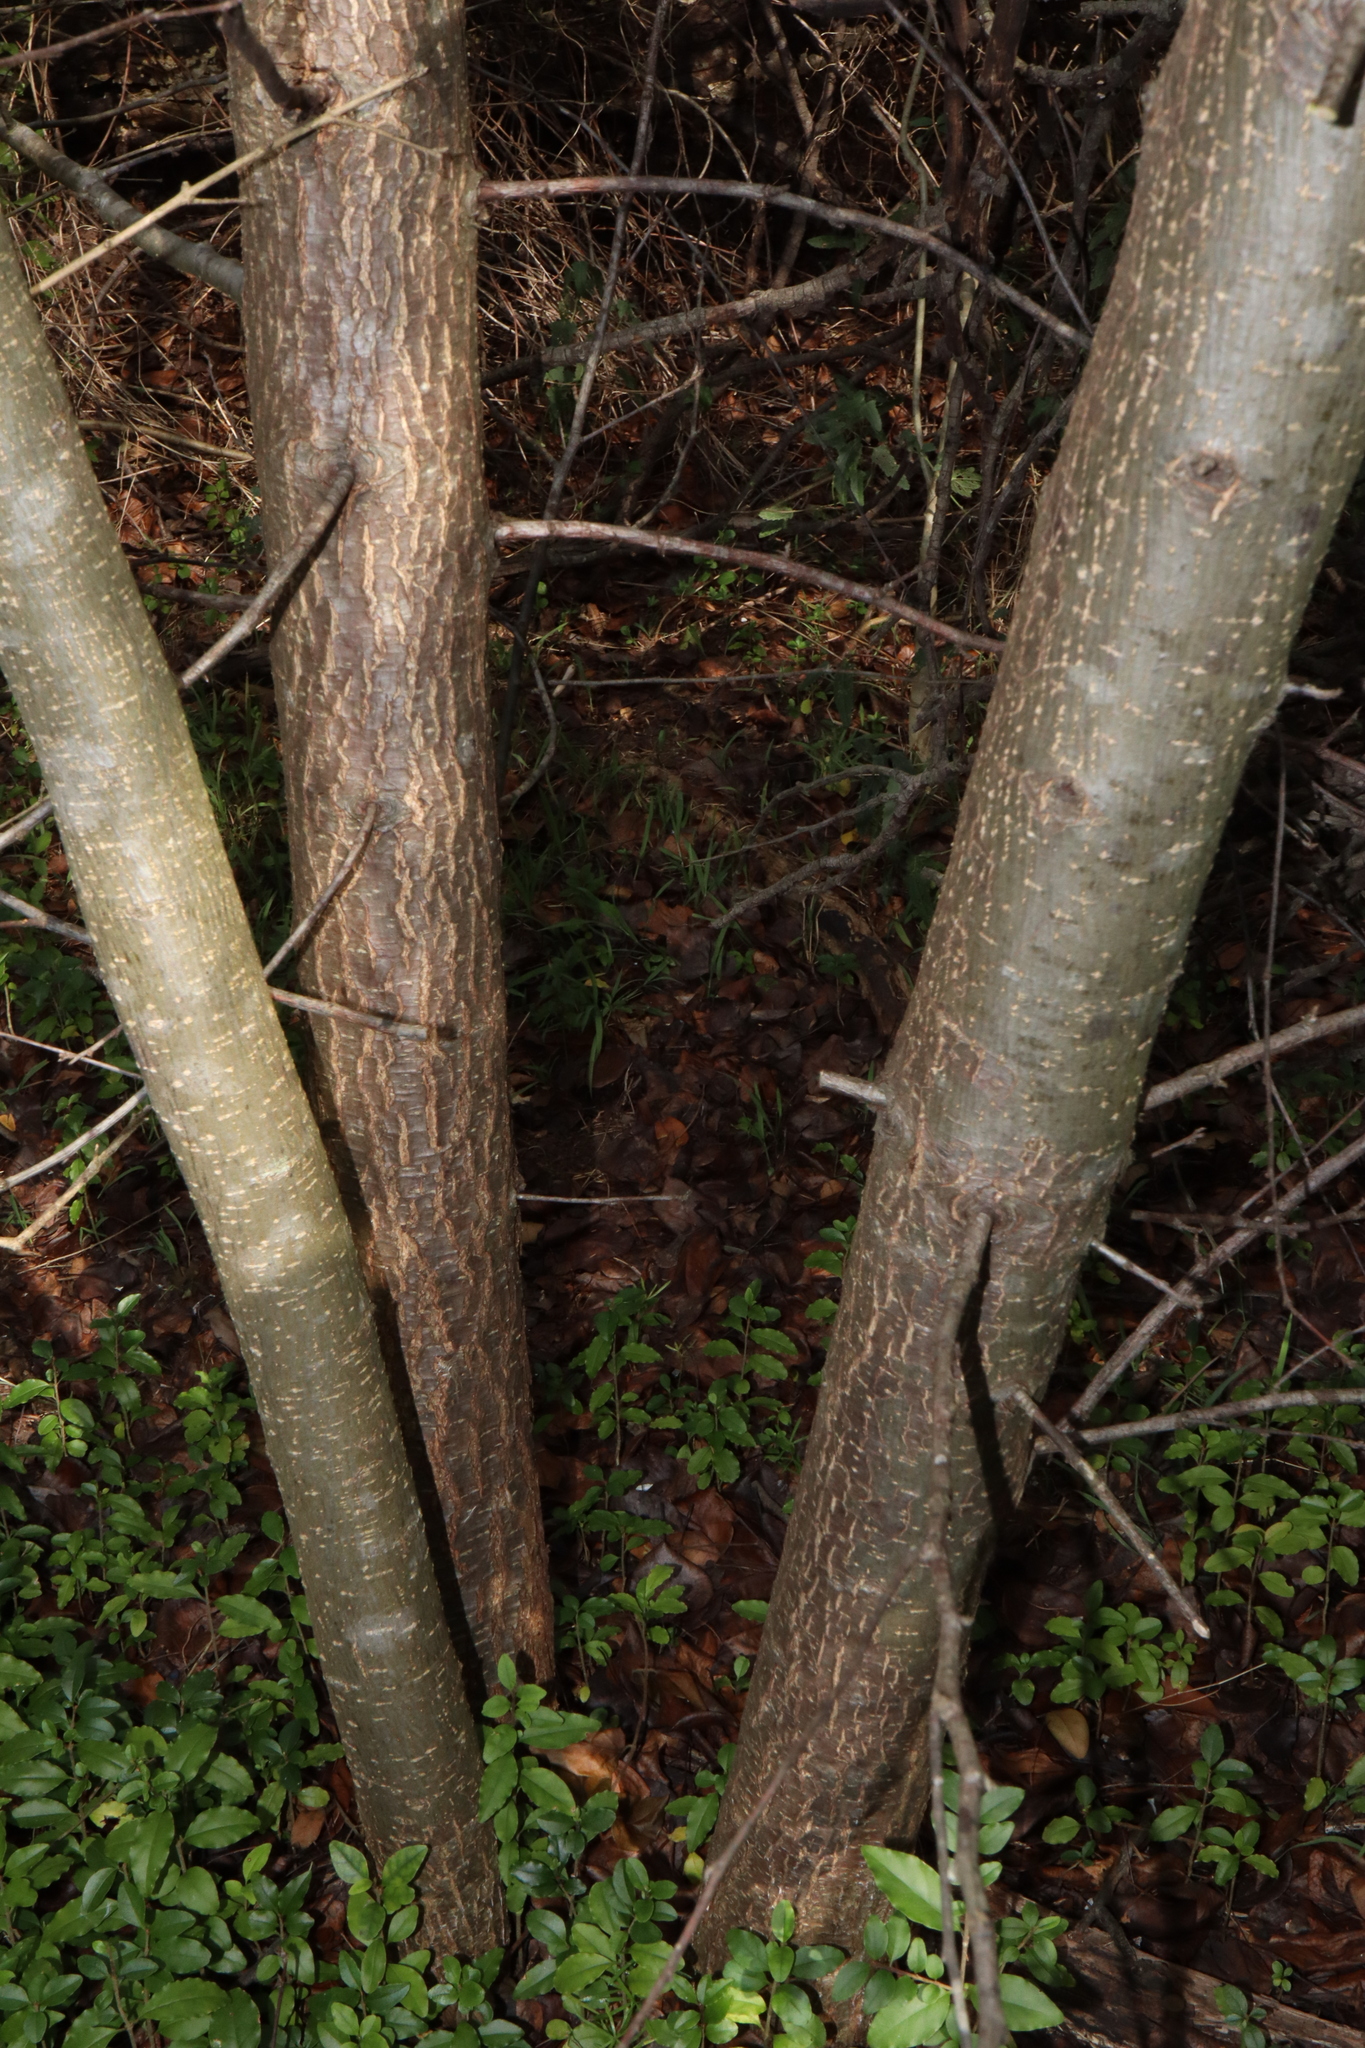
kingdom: Plantae
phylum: Tracheophyta
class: Magnoliopsida
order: Rosales
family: Rosaceae
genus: Pyrus
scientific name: Pyrus calleryana
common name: Callery pear
